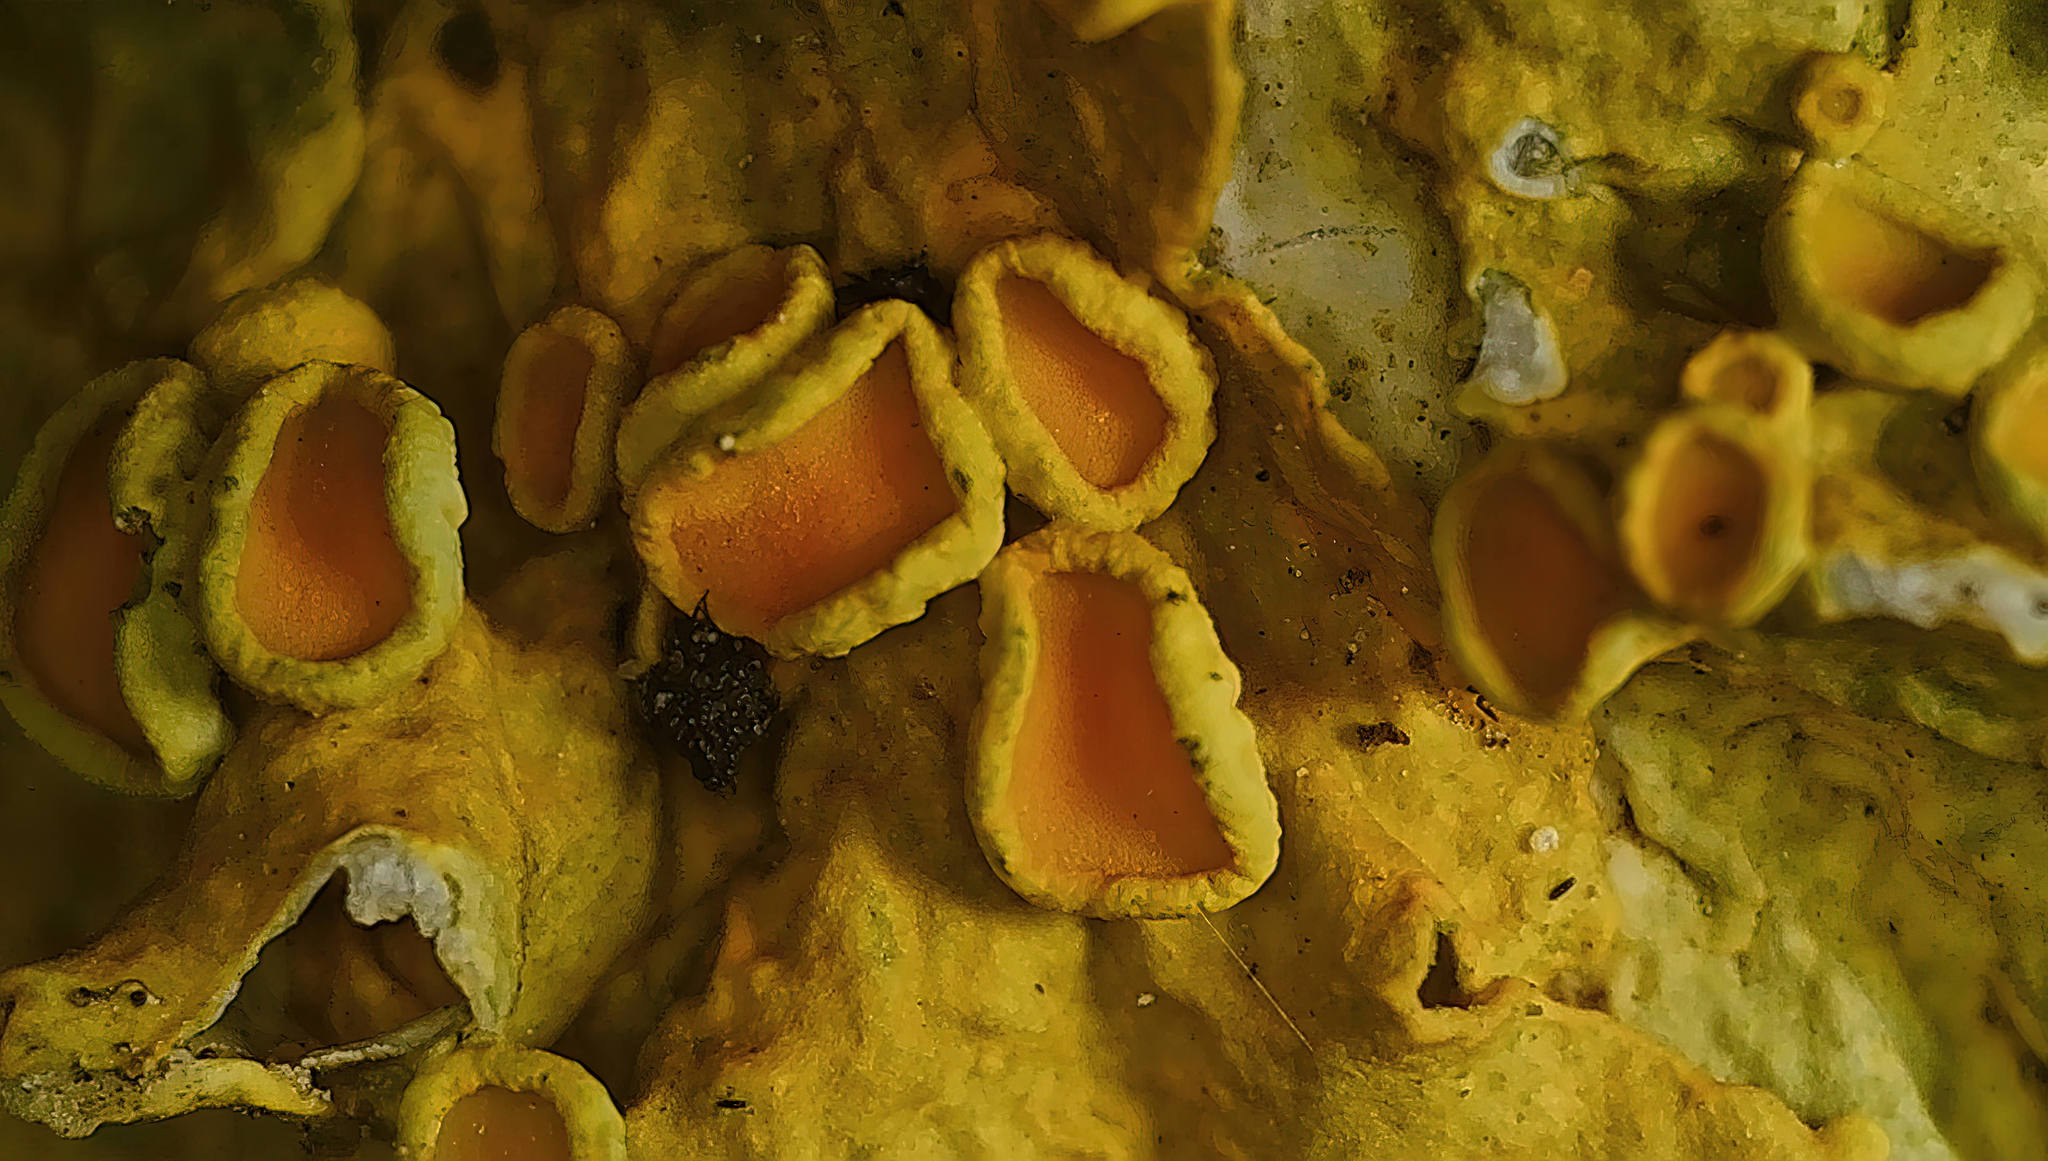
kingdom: Fungi
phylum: Ascomycota
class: Lecanoromycetes
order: Teloschistales
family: Teloschistaceae
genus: Xanthoria
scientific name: Xanthoria parietina
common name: Common orange lichen
